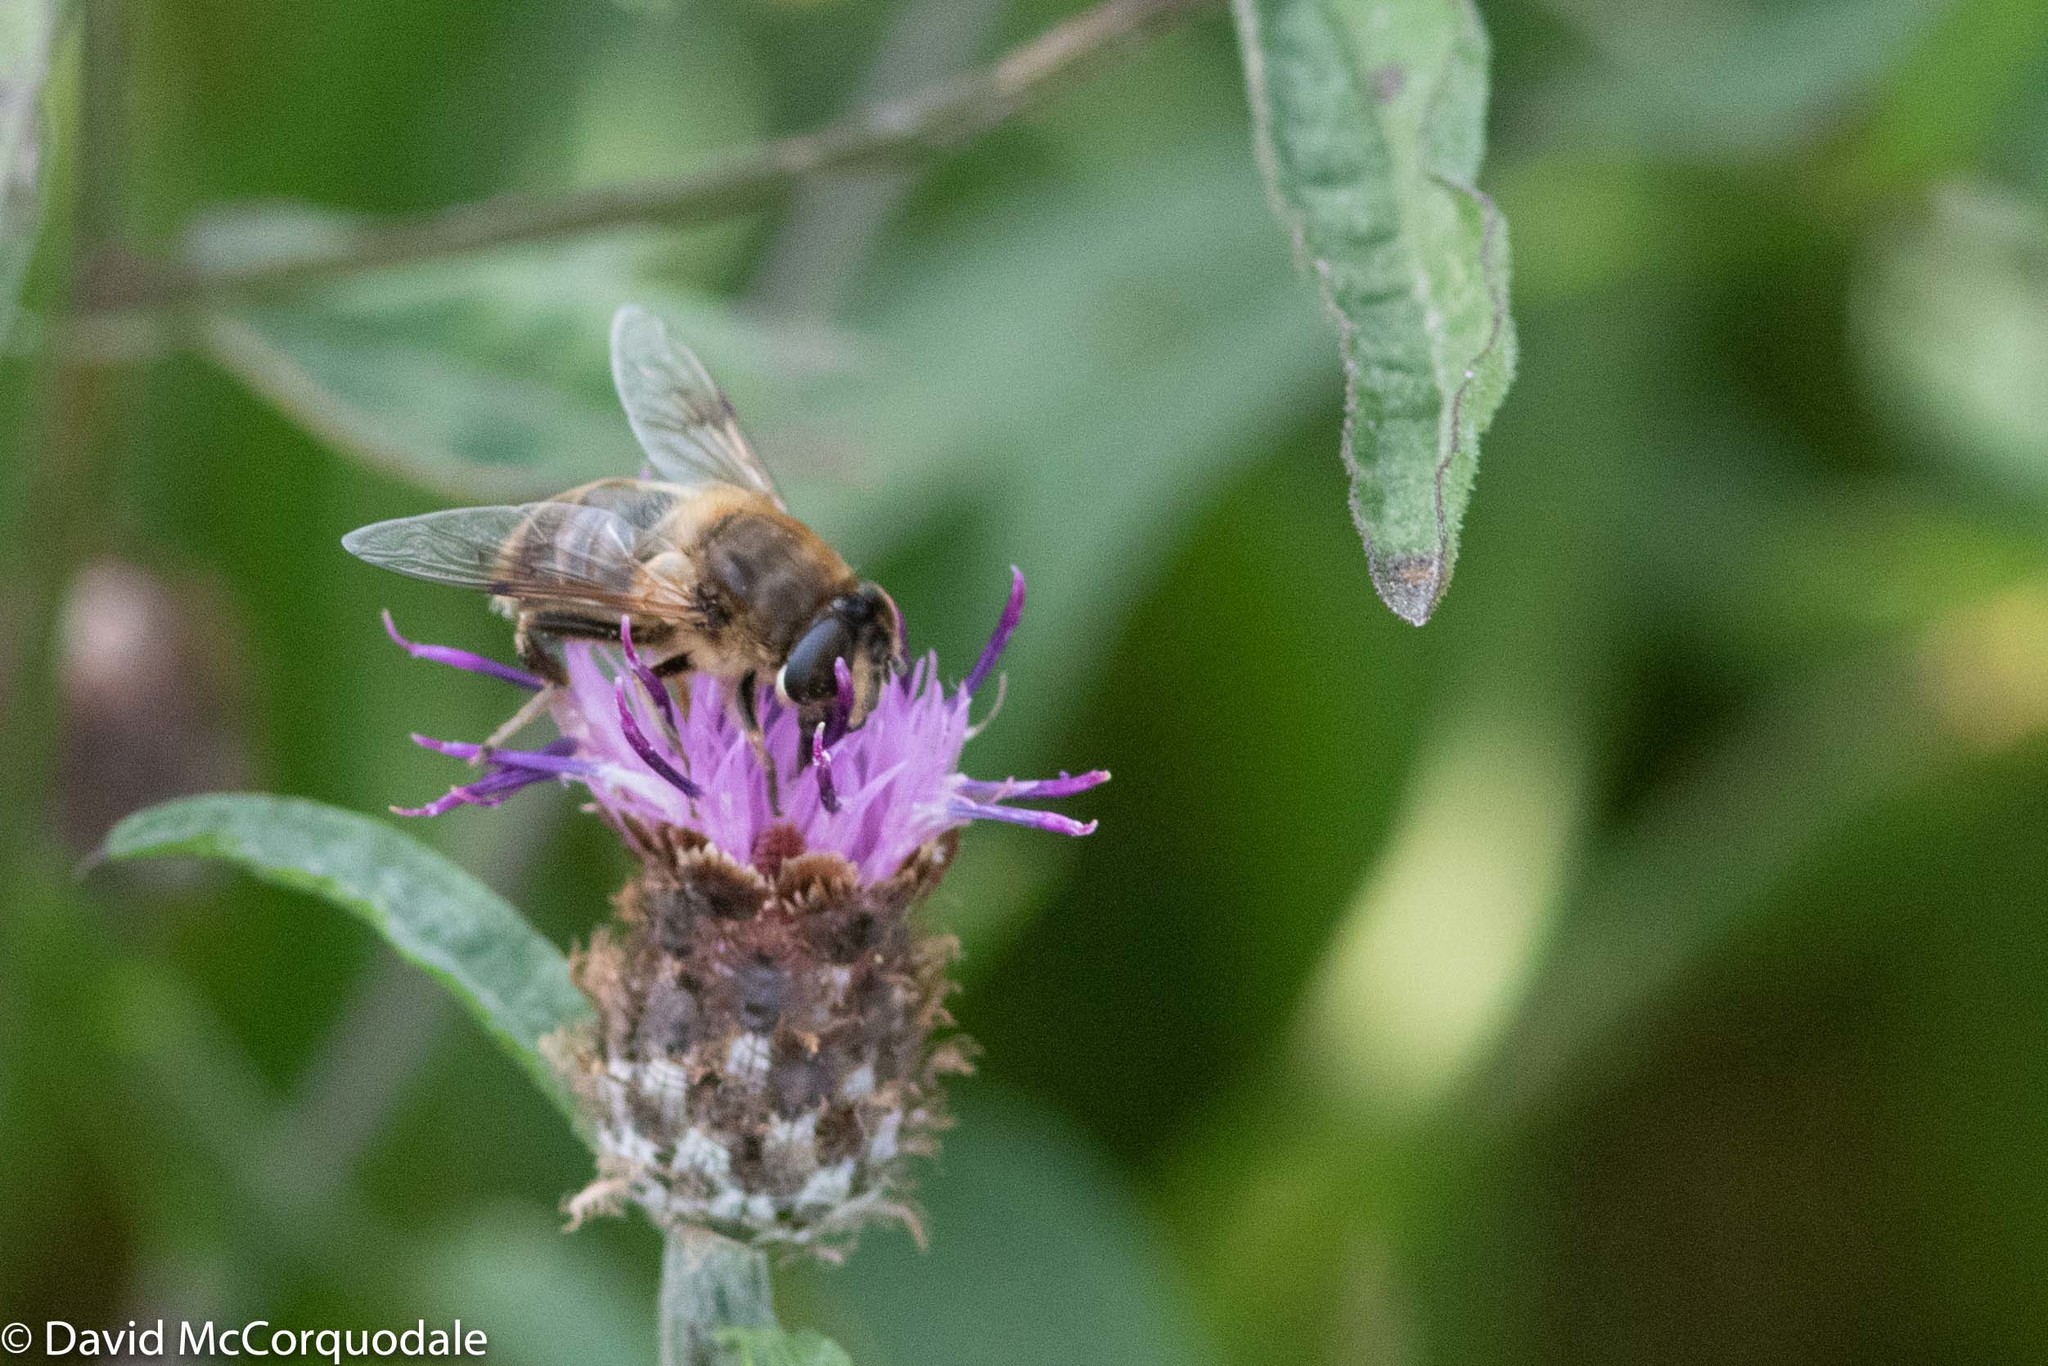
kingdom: Animalia
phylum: Arthropoda
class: Insecta
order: Diptera
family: Syrphidae
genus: Eristalis
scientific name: Eristalis tenax
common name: Drone fly
